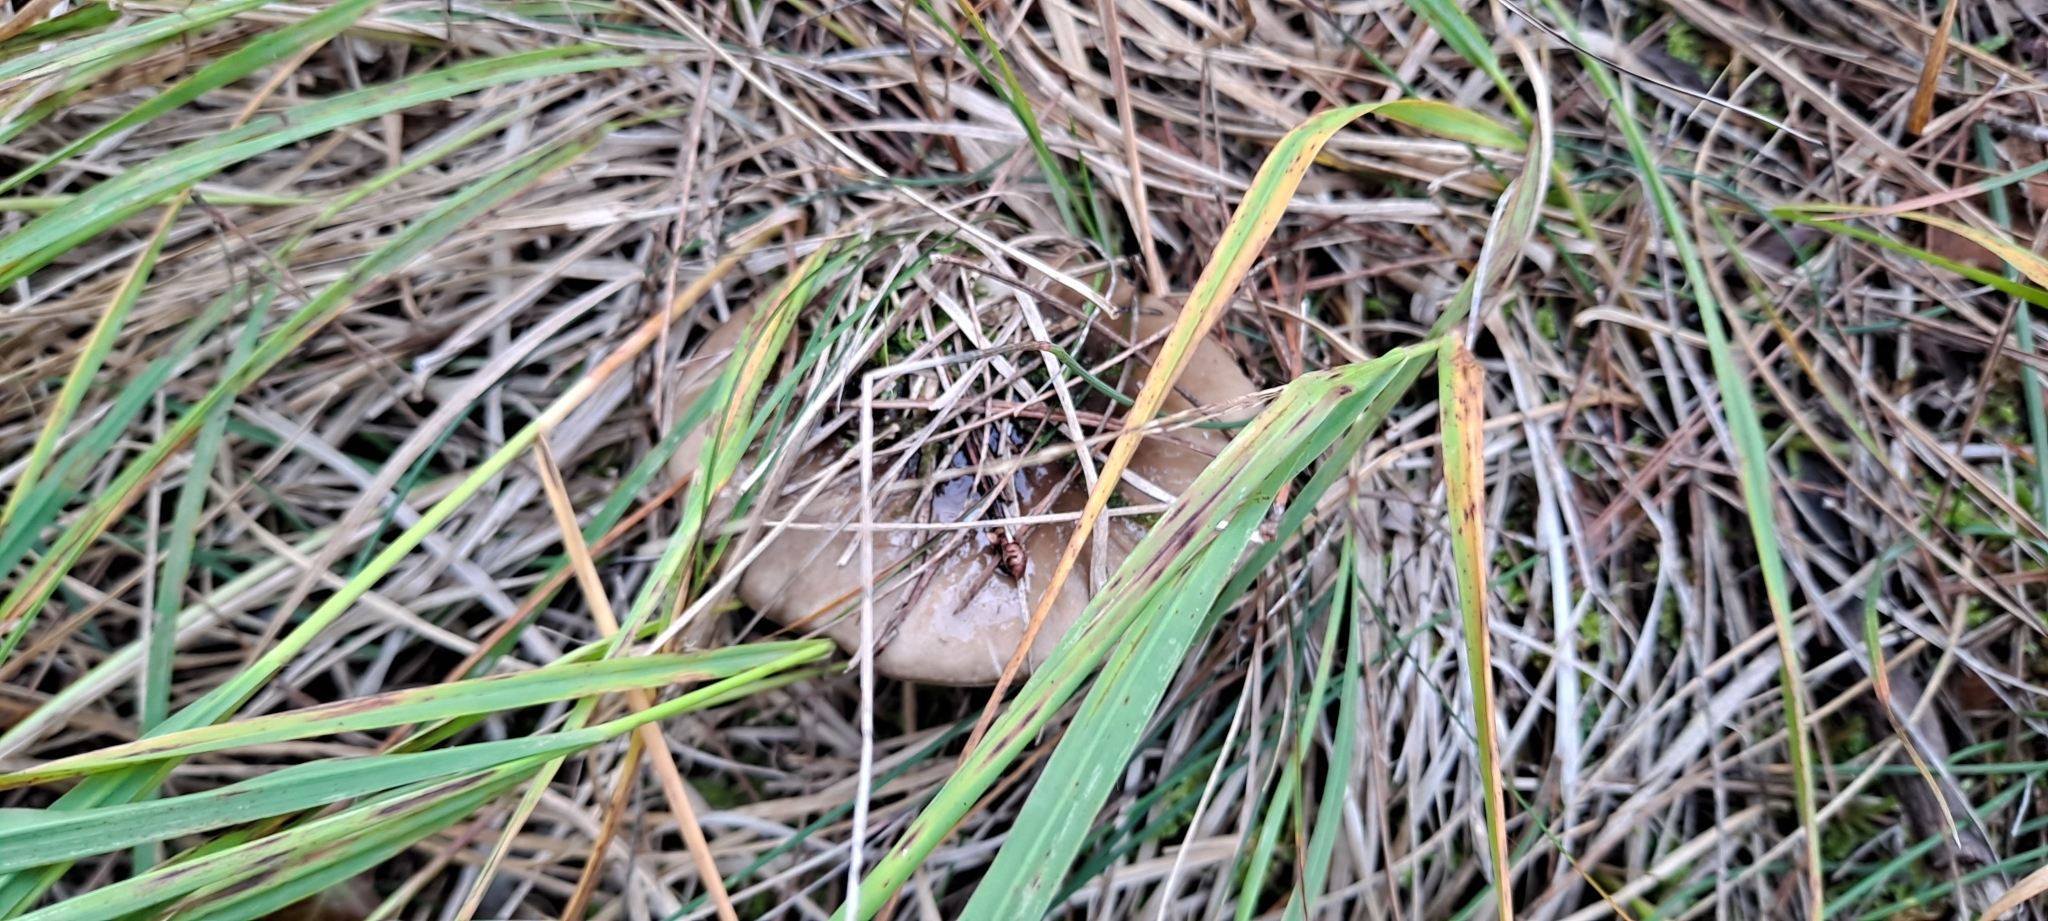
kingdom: Fungi
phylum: Basidiomycota
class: Agaricomycetes
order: Agaricales
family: Hygrophoraceae
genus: Hygrophorus
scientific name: Hygrophorus limacinus
